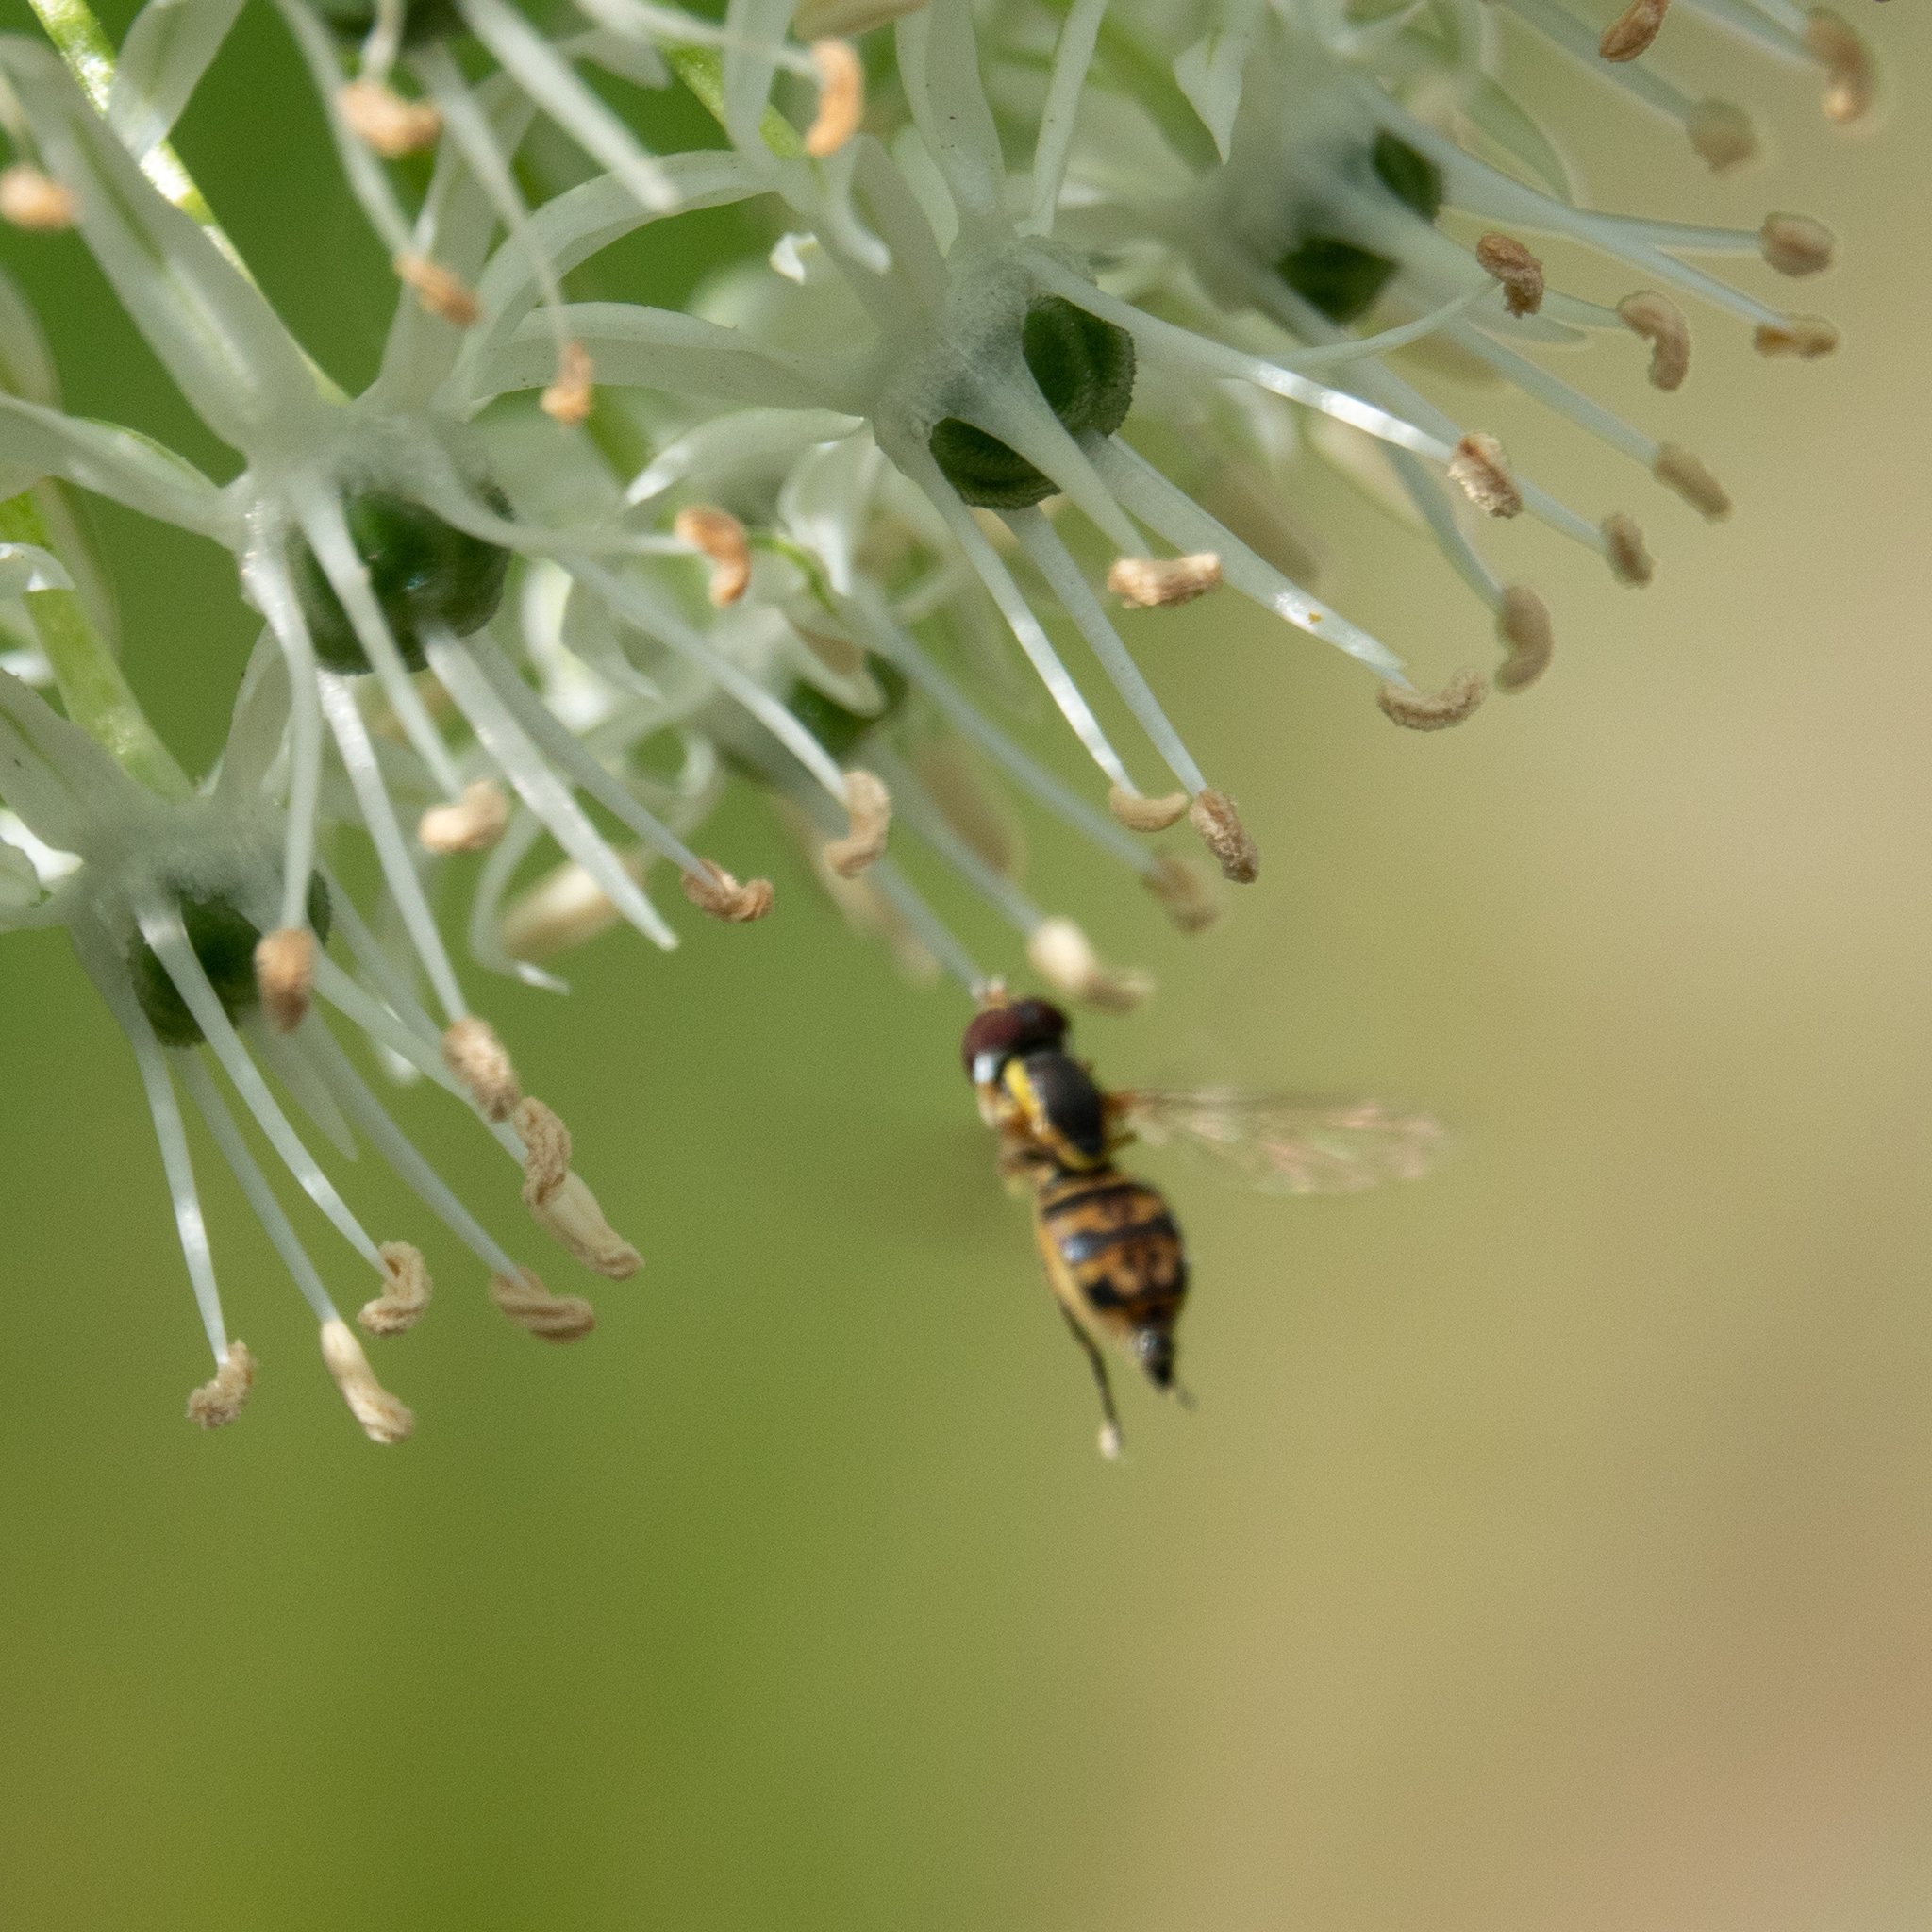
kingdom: Animalia
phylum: Arthropoda
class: Insecta
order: Diptera
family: Syrphidae
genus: Toxomerus
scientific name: Toxomerus geminatus
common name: Eastern calligrapher
